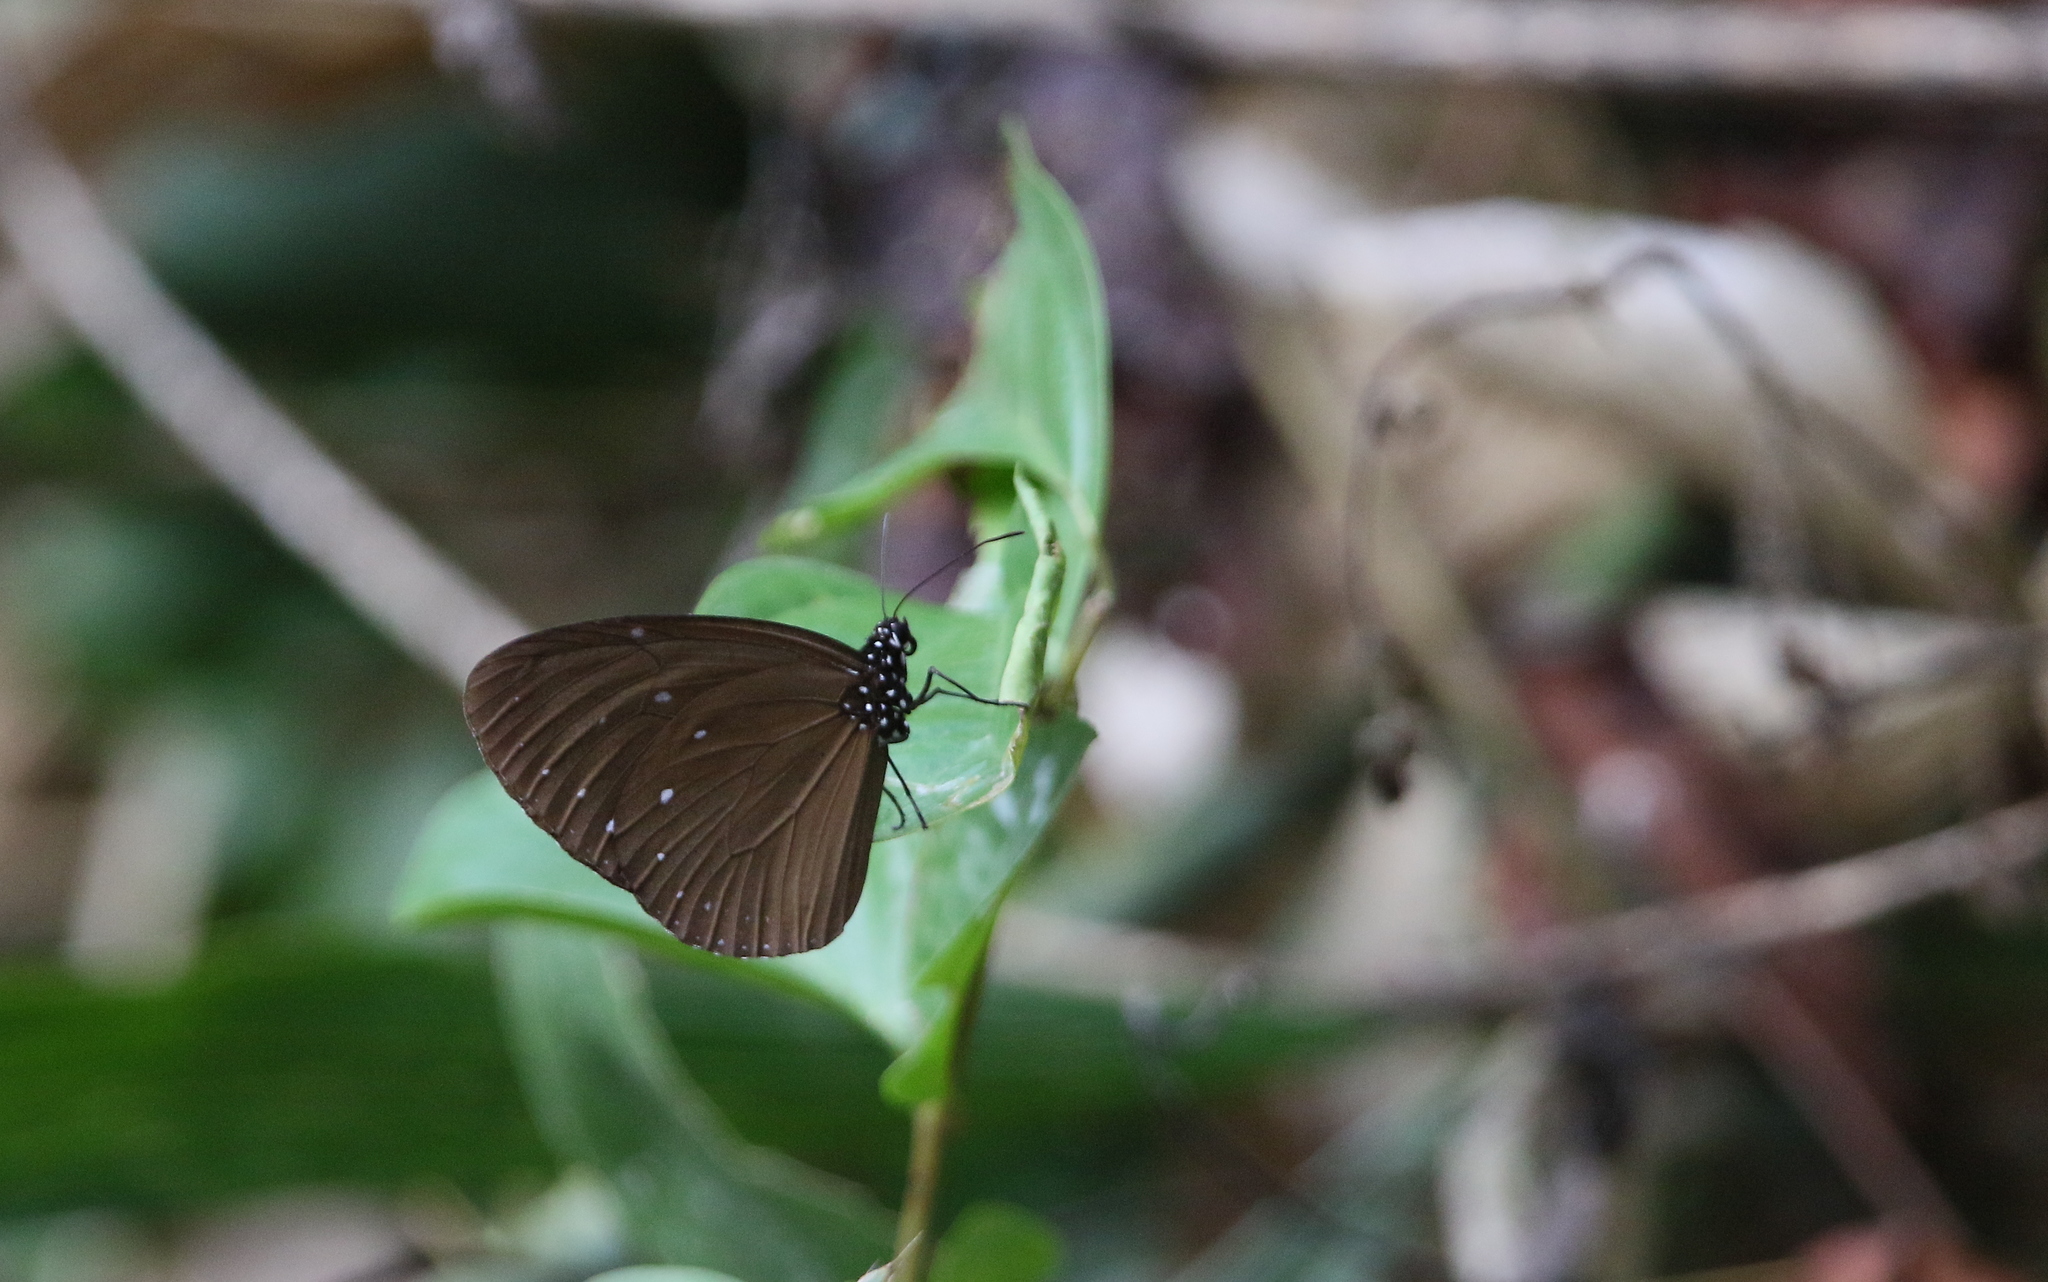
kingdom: Animalia
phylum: Arthropoda
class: Insecta
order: Lepidoptera
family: Nymphalidae
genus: Euploea
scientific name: Euploea tulliolus
